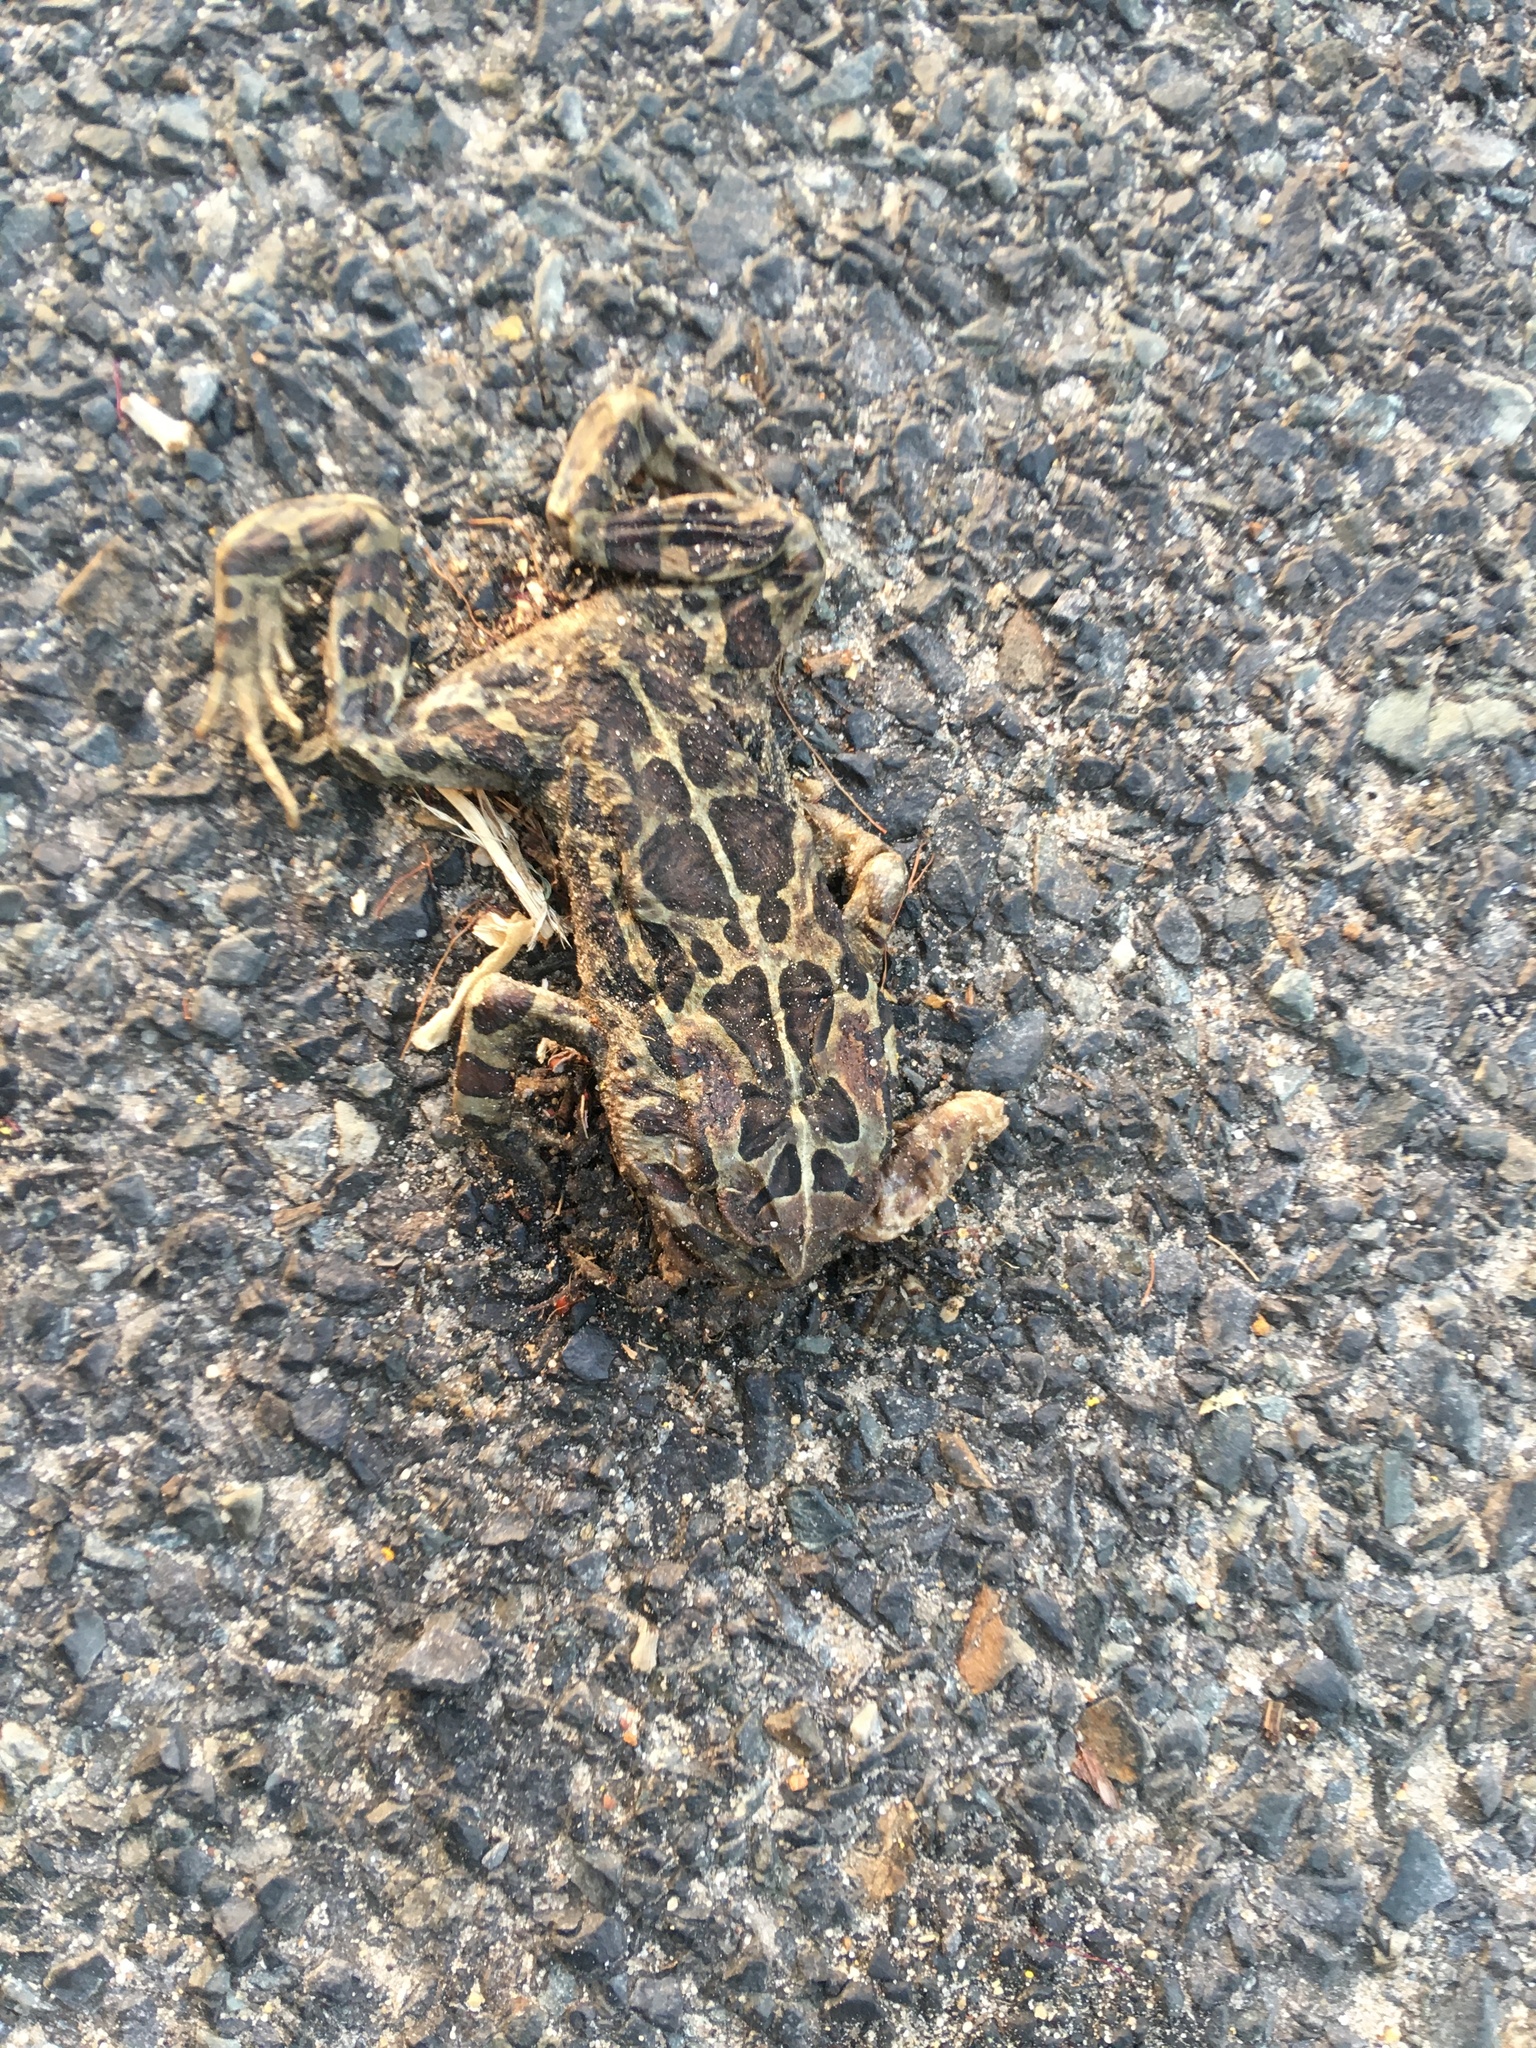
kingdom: Animalia
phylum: Chordata
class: Amphibia
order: Anura
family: Bufonidae
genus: Sclerophrys
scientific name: Sclerophrys pantherina
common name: Panther toad
